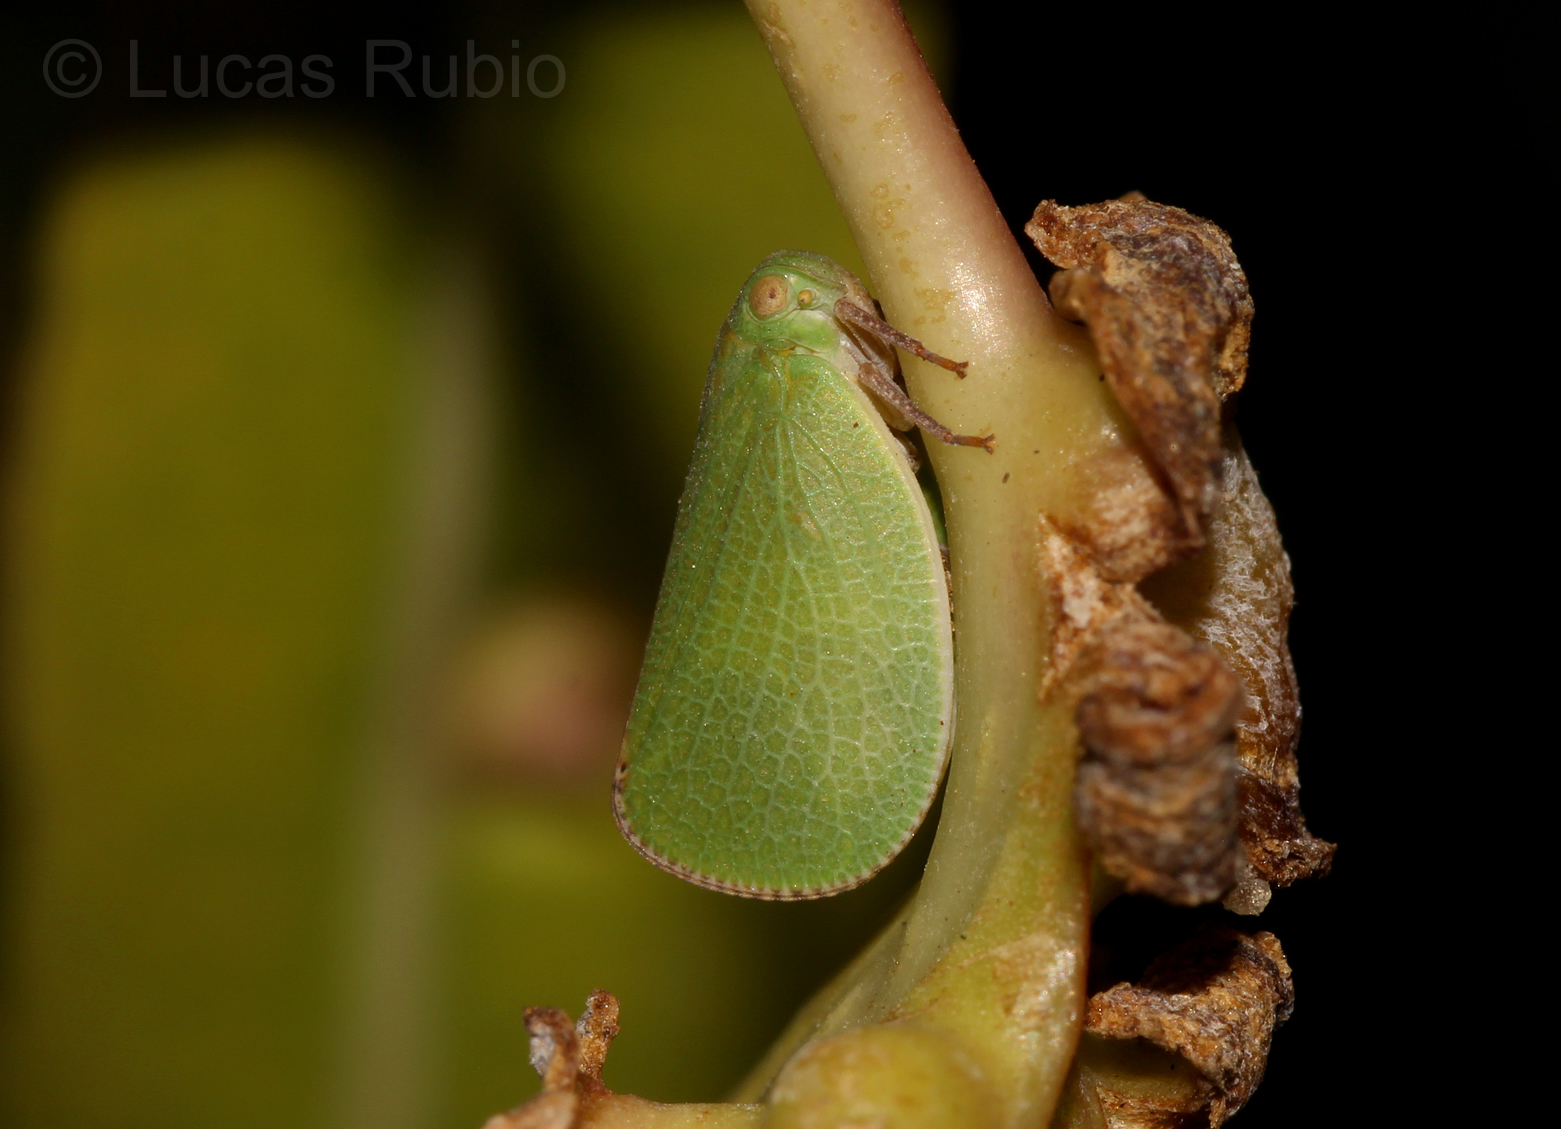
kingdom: Animalia
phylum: Arthropoda
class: Insecta
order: Hemiptera
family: Acanaloniidae
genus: Acanalonia
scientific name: Acanalonia chloris
